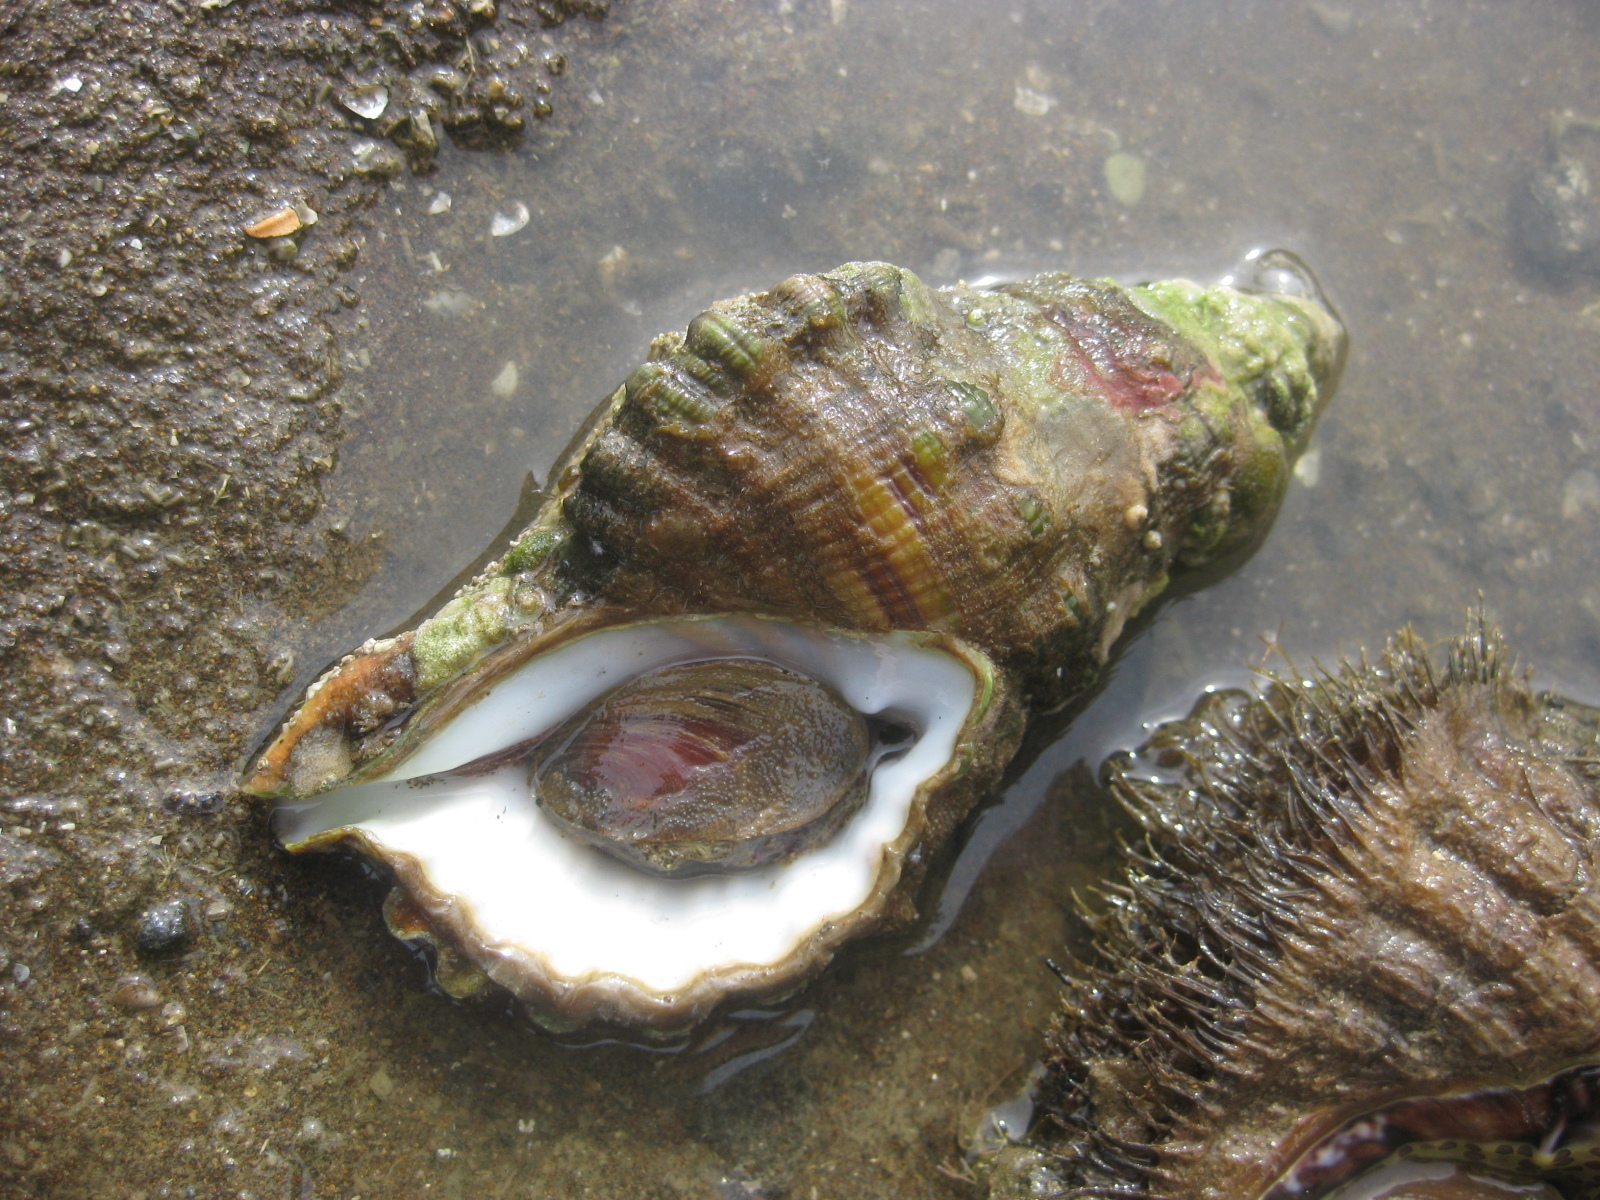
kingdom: Animalia
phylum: Mollusca
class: Gastropoda
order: Littorinimorpha
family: Cymatiidae
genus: Cabestana
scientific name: Cabestana spengleri
